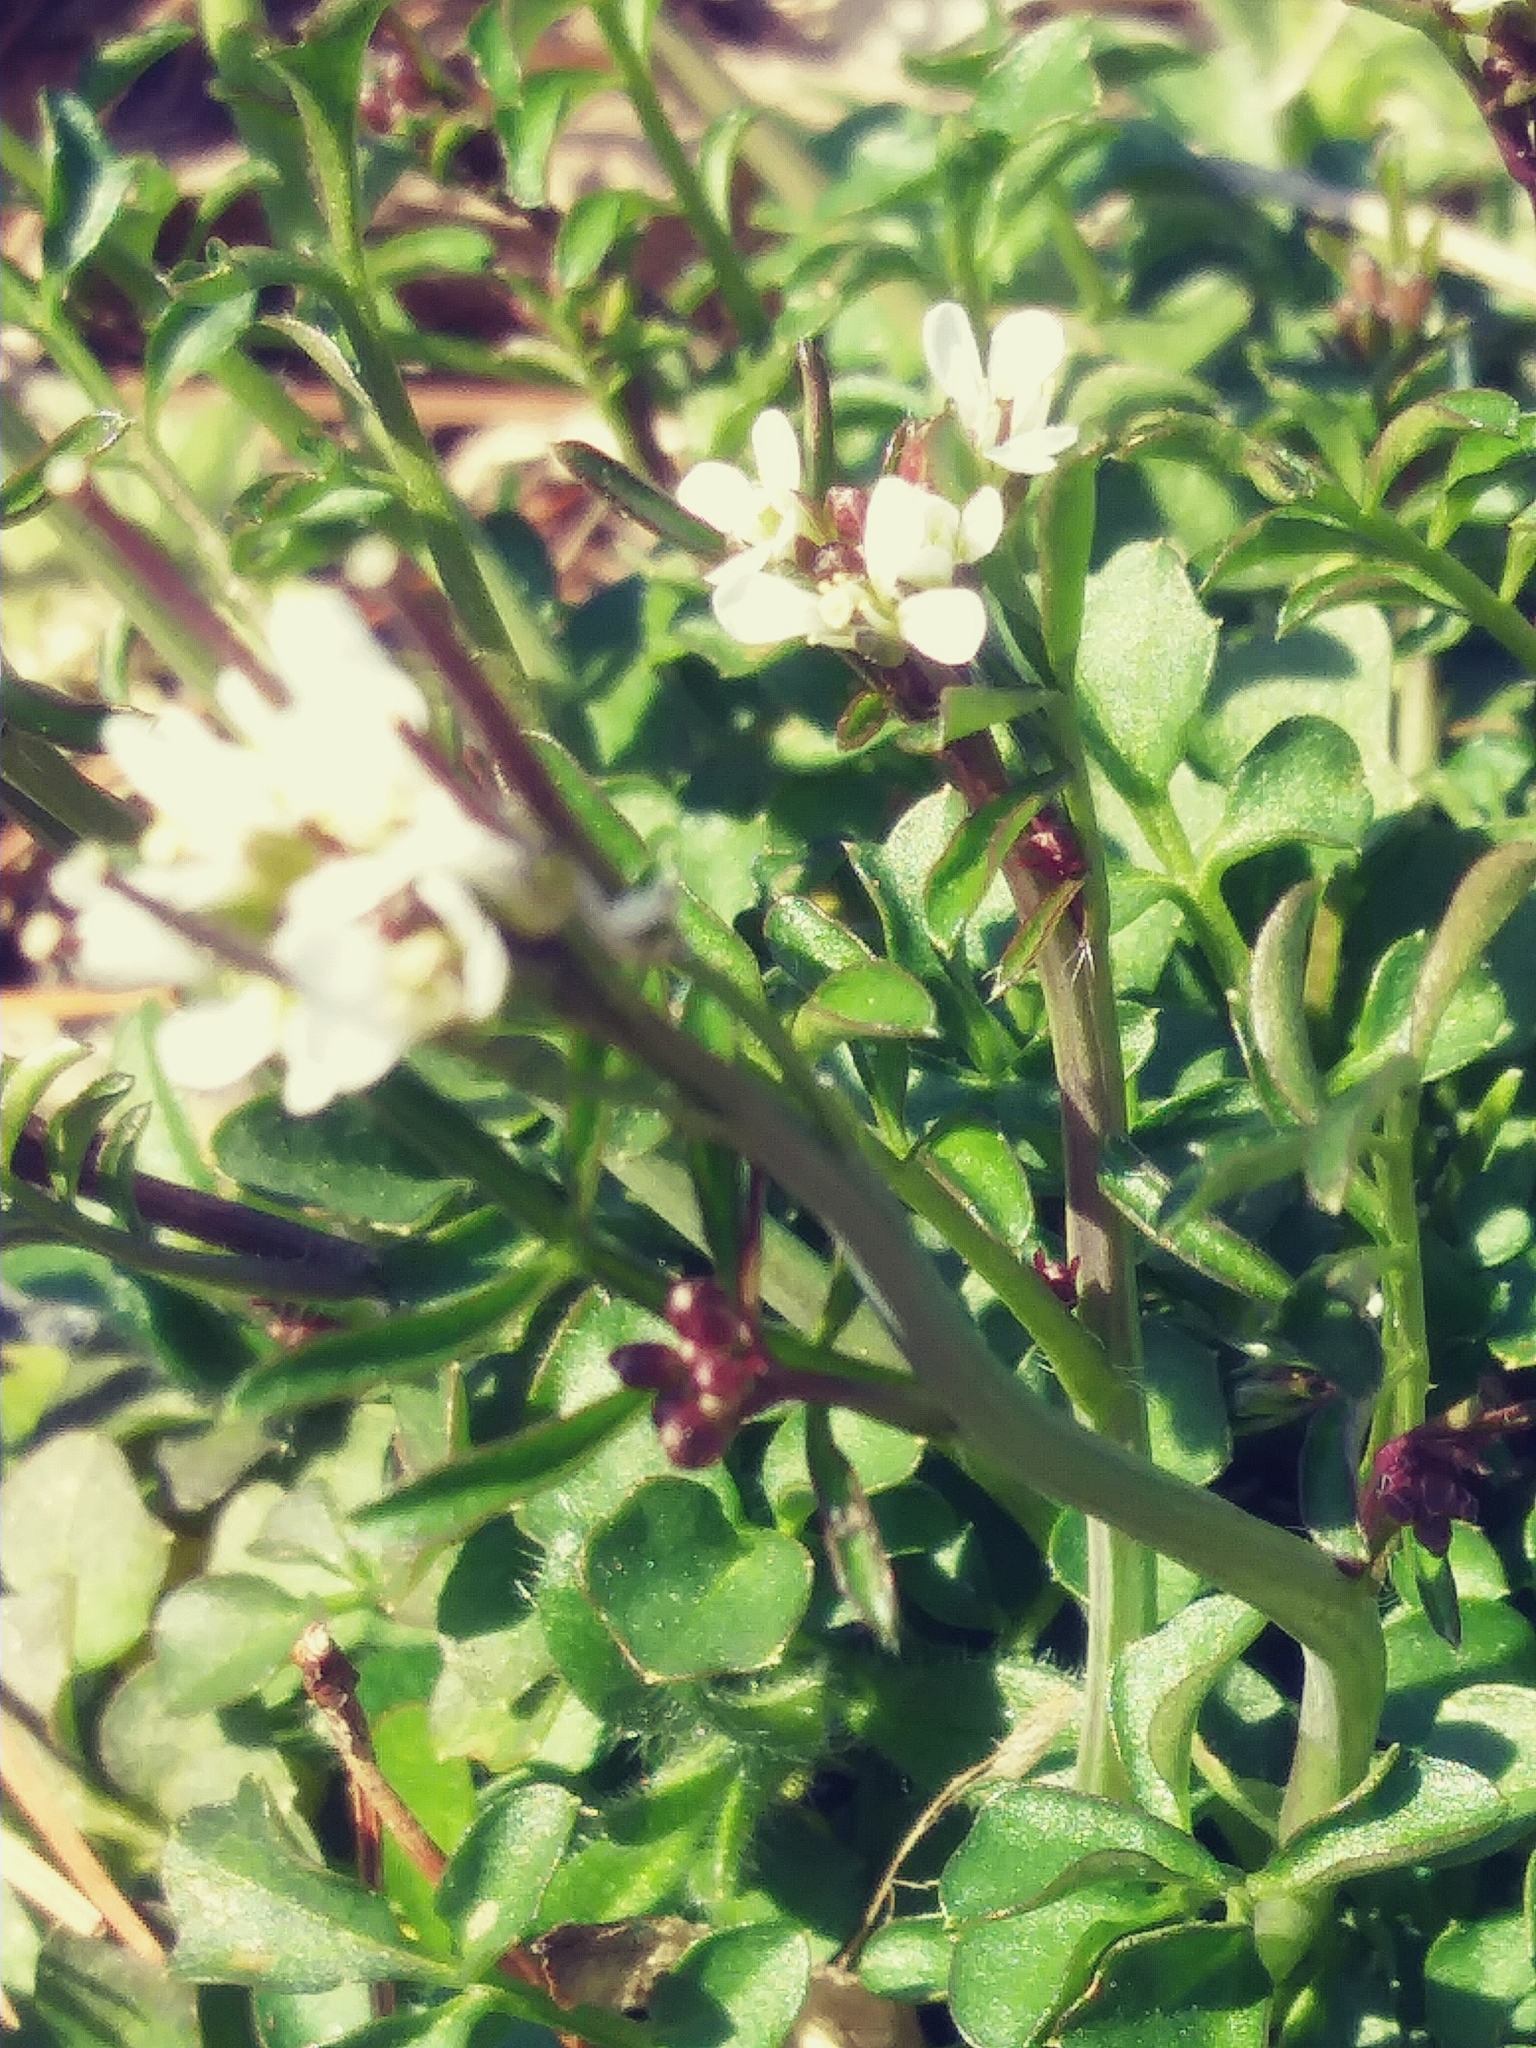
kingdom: Plantae
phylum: Tracheophyta
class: Magnoliopsida
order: Brassicales
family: Brassicaceae
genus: Cardamine
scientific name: Cardamine hirsuta
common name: Hairy bittercress
